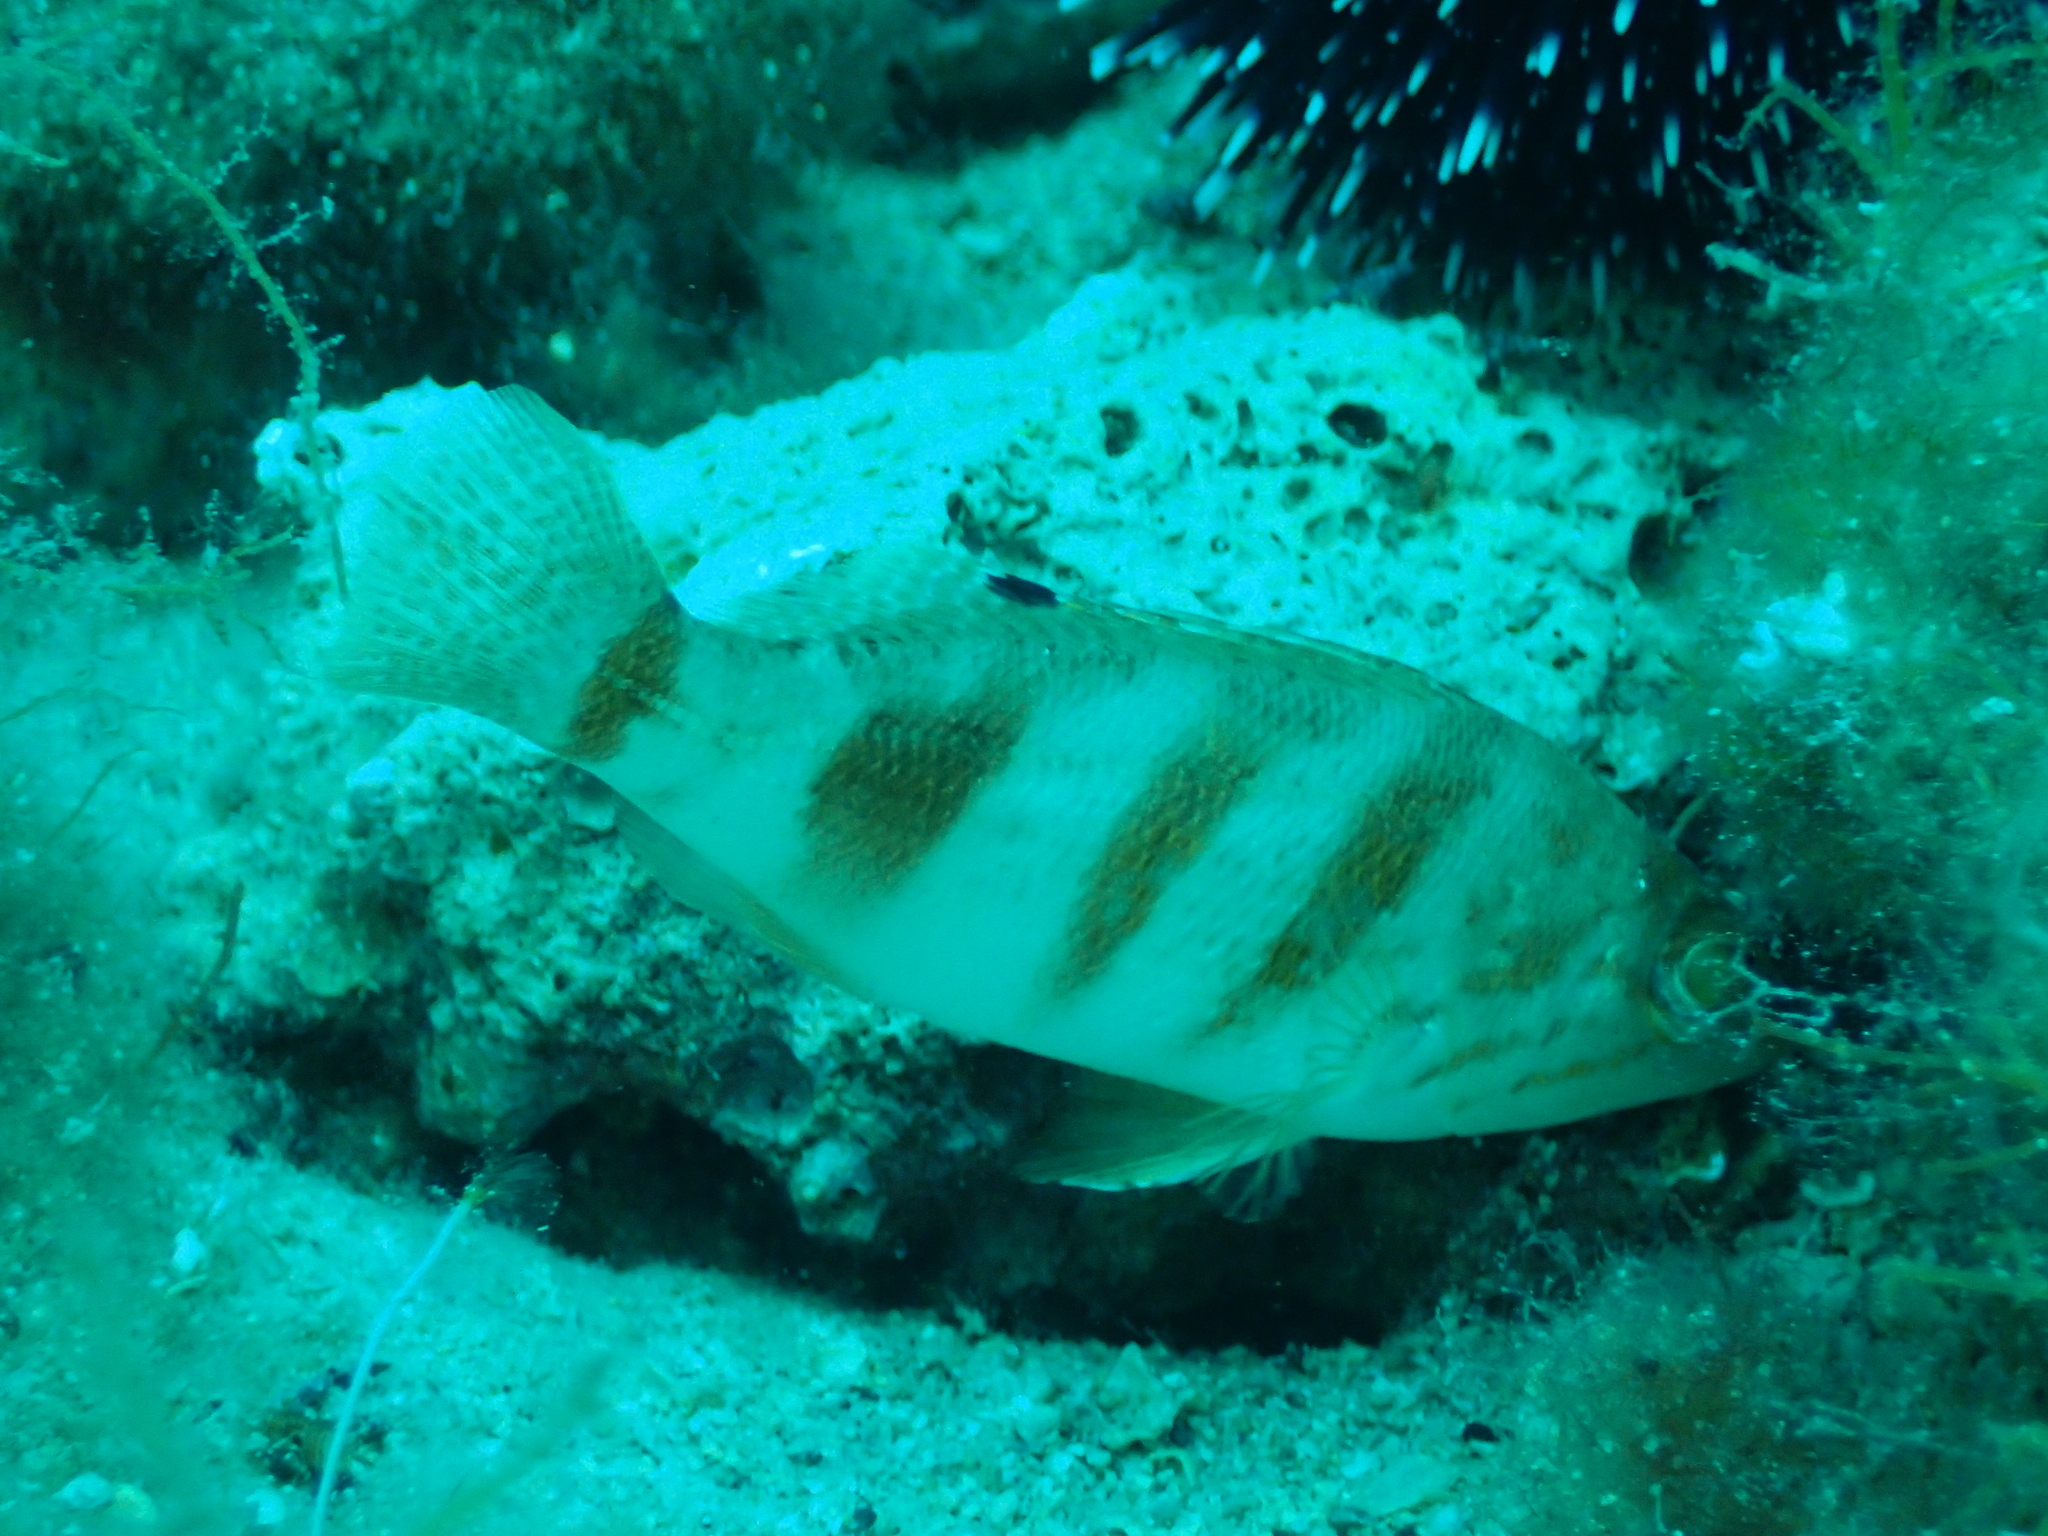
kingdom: Animalia
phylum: Chordata
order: Perciformes
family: Serranidae
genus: Serranus
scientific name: Serranus hepatus
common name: Brown comber
